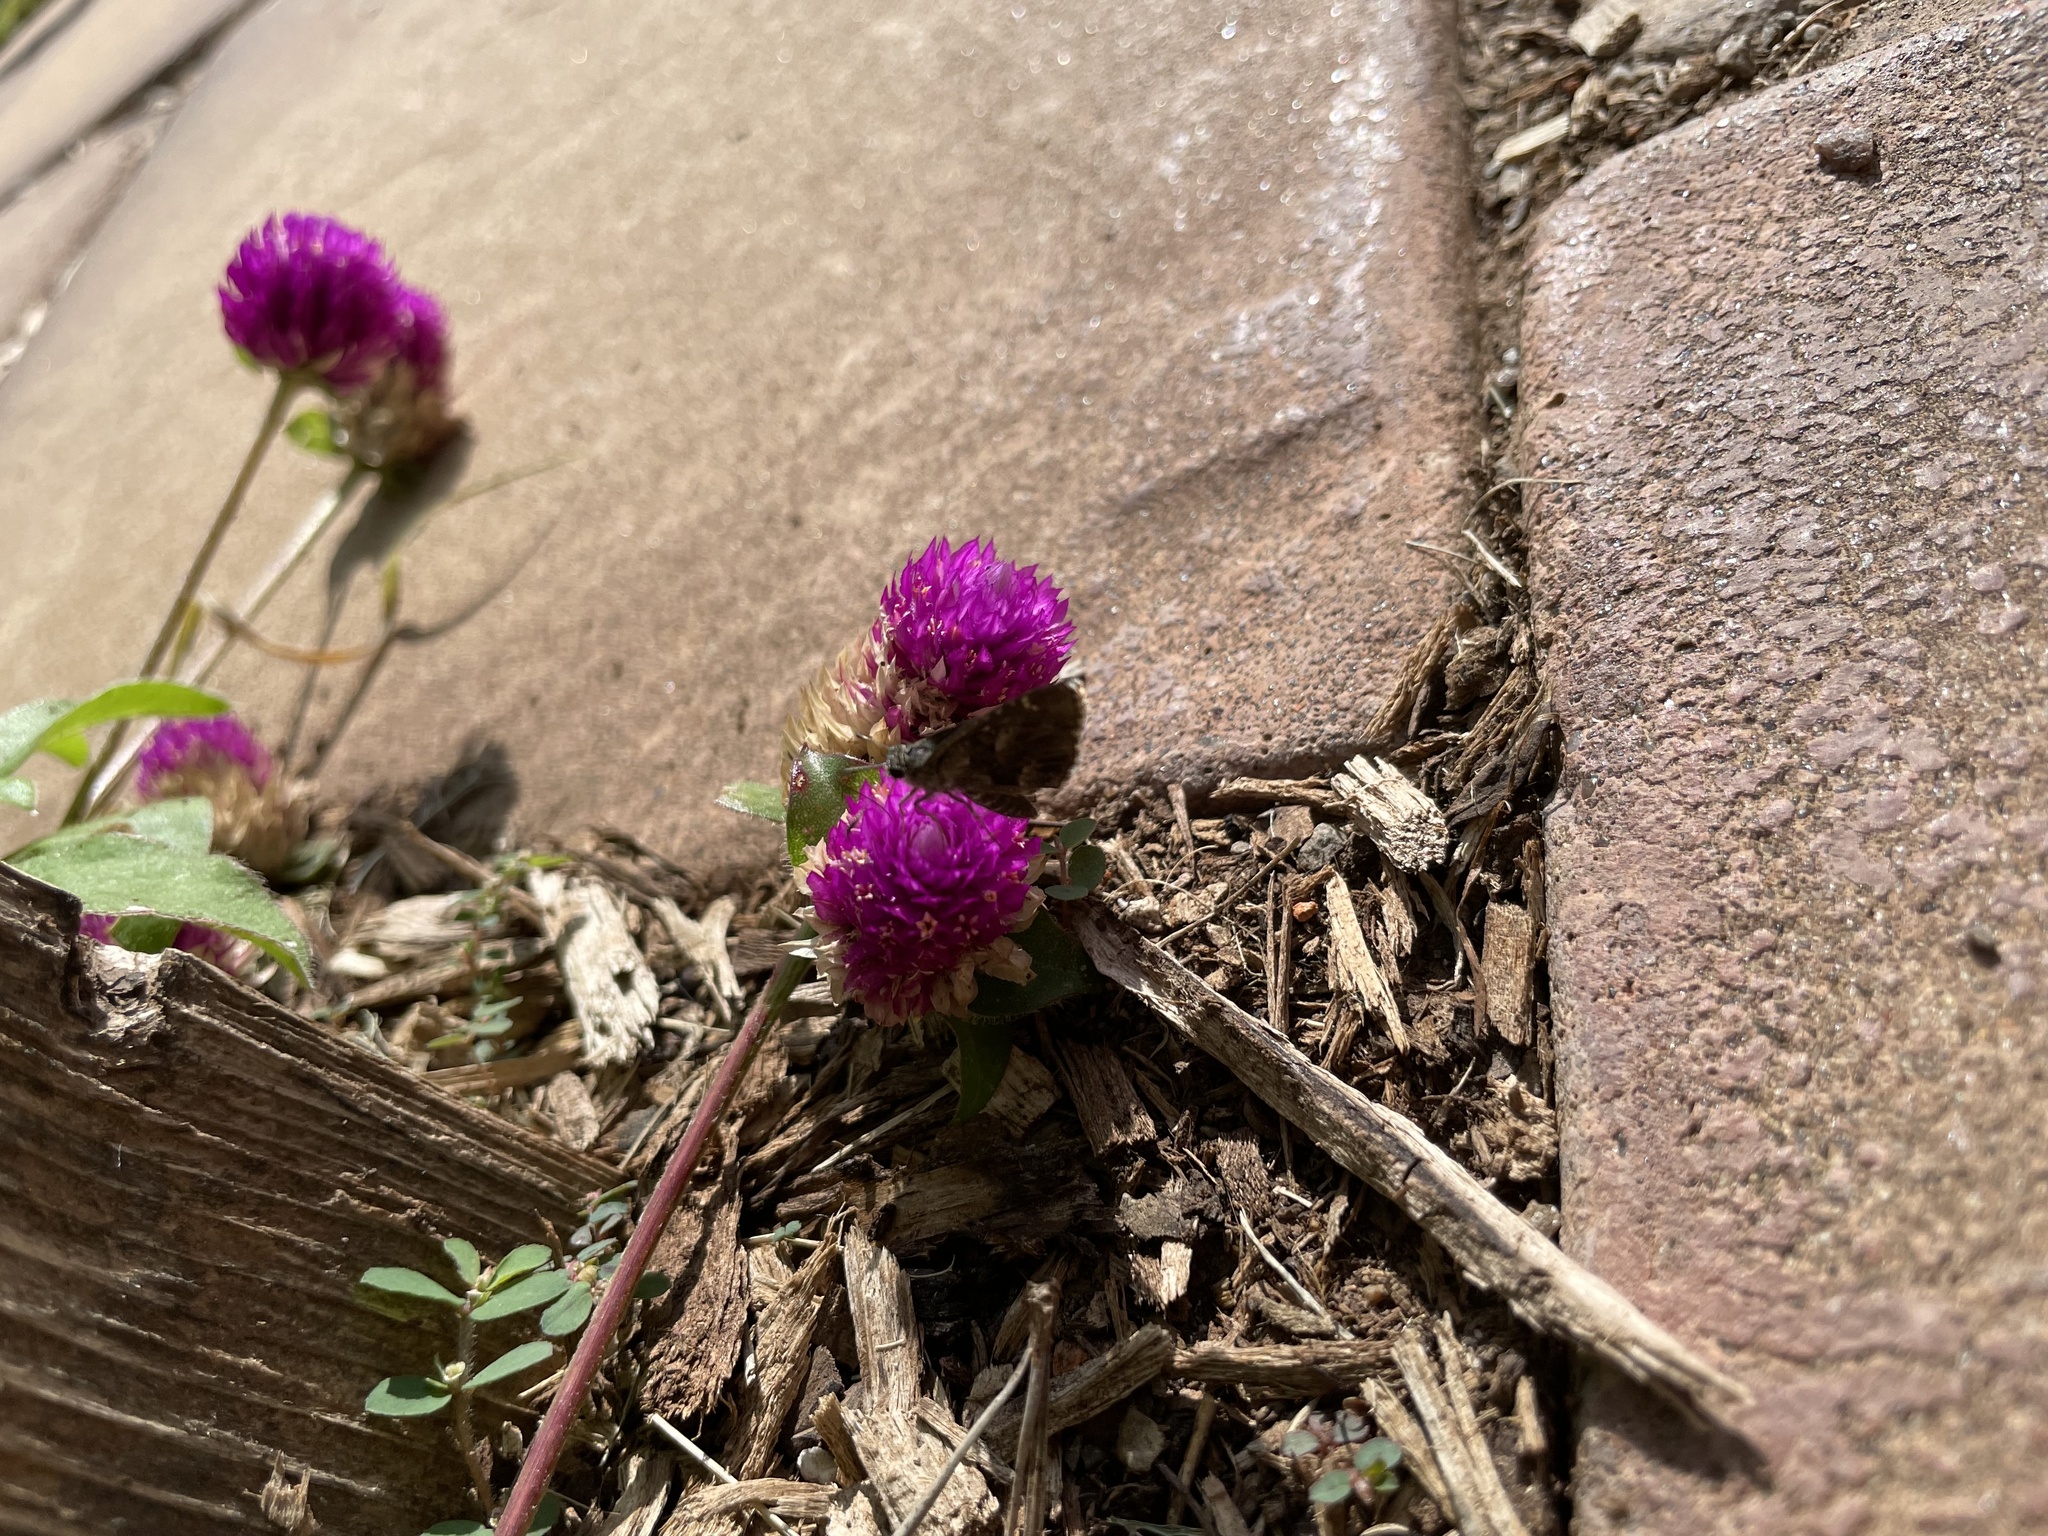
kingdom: Animalia
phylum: Arthropoda
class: Insecta
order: Lepidoptera
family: Hesperiidae
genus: Mastor
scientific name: Mastor nysa
